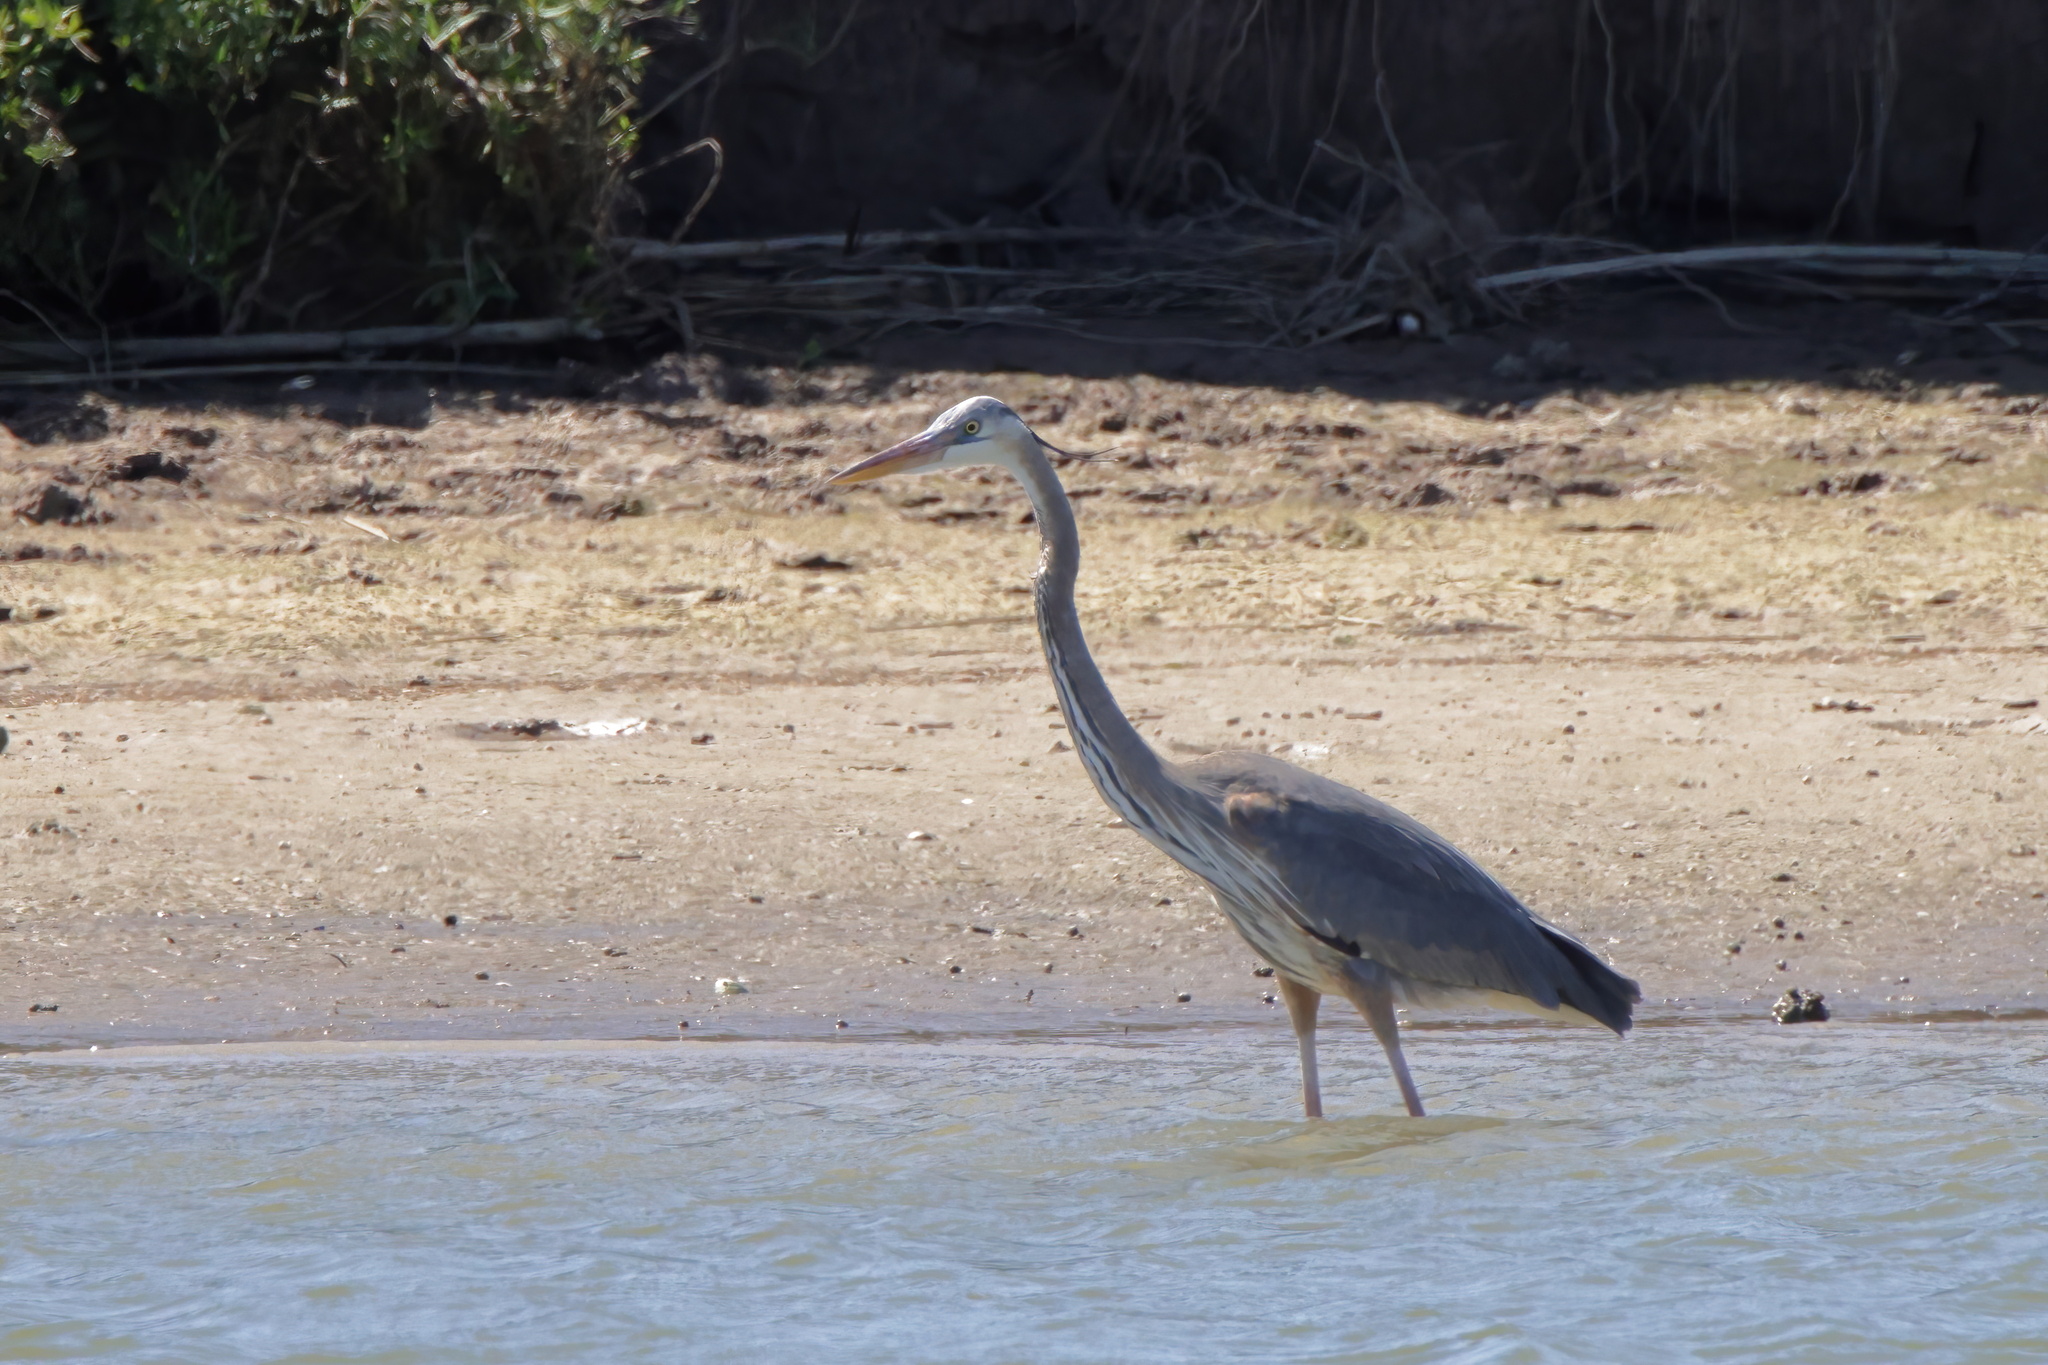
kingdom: Animalia
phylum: Chordata
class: Aves
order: Pelecaniformes
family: Ardeidae
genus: Ardea
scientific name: Ardea herodias
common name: Great blue heron
